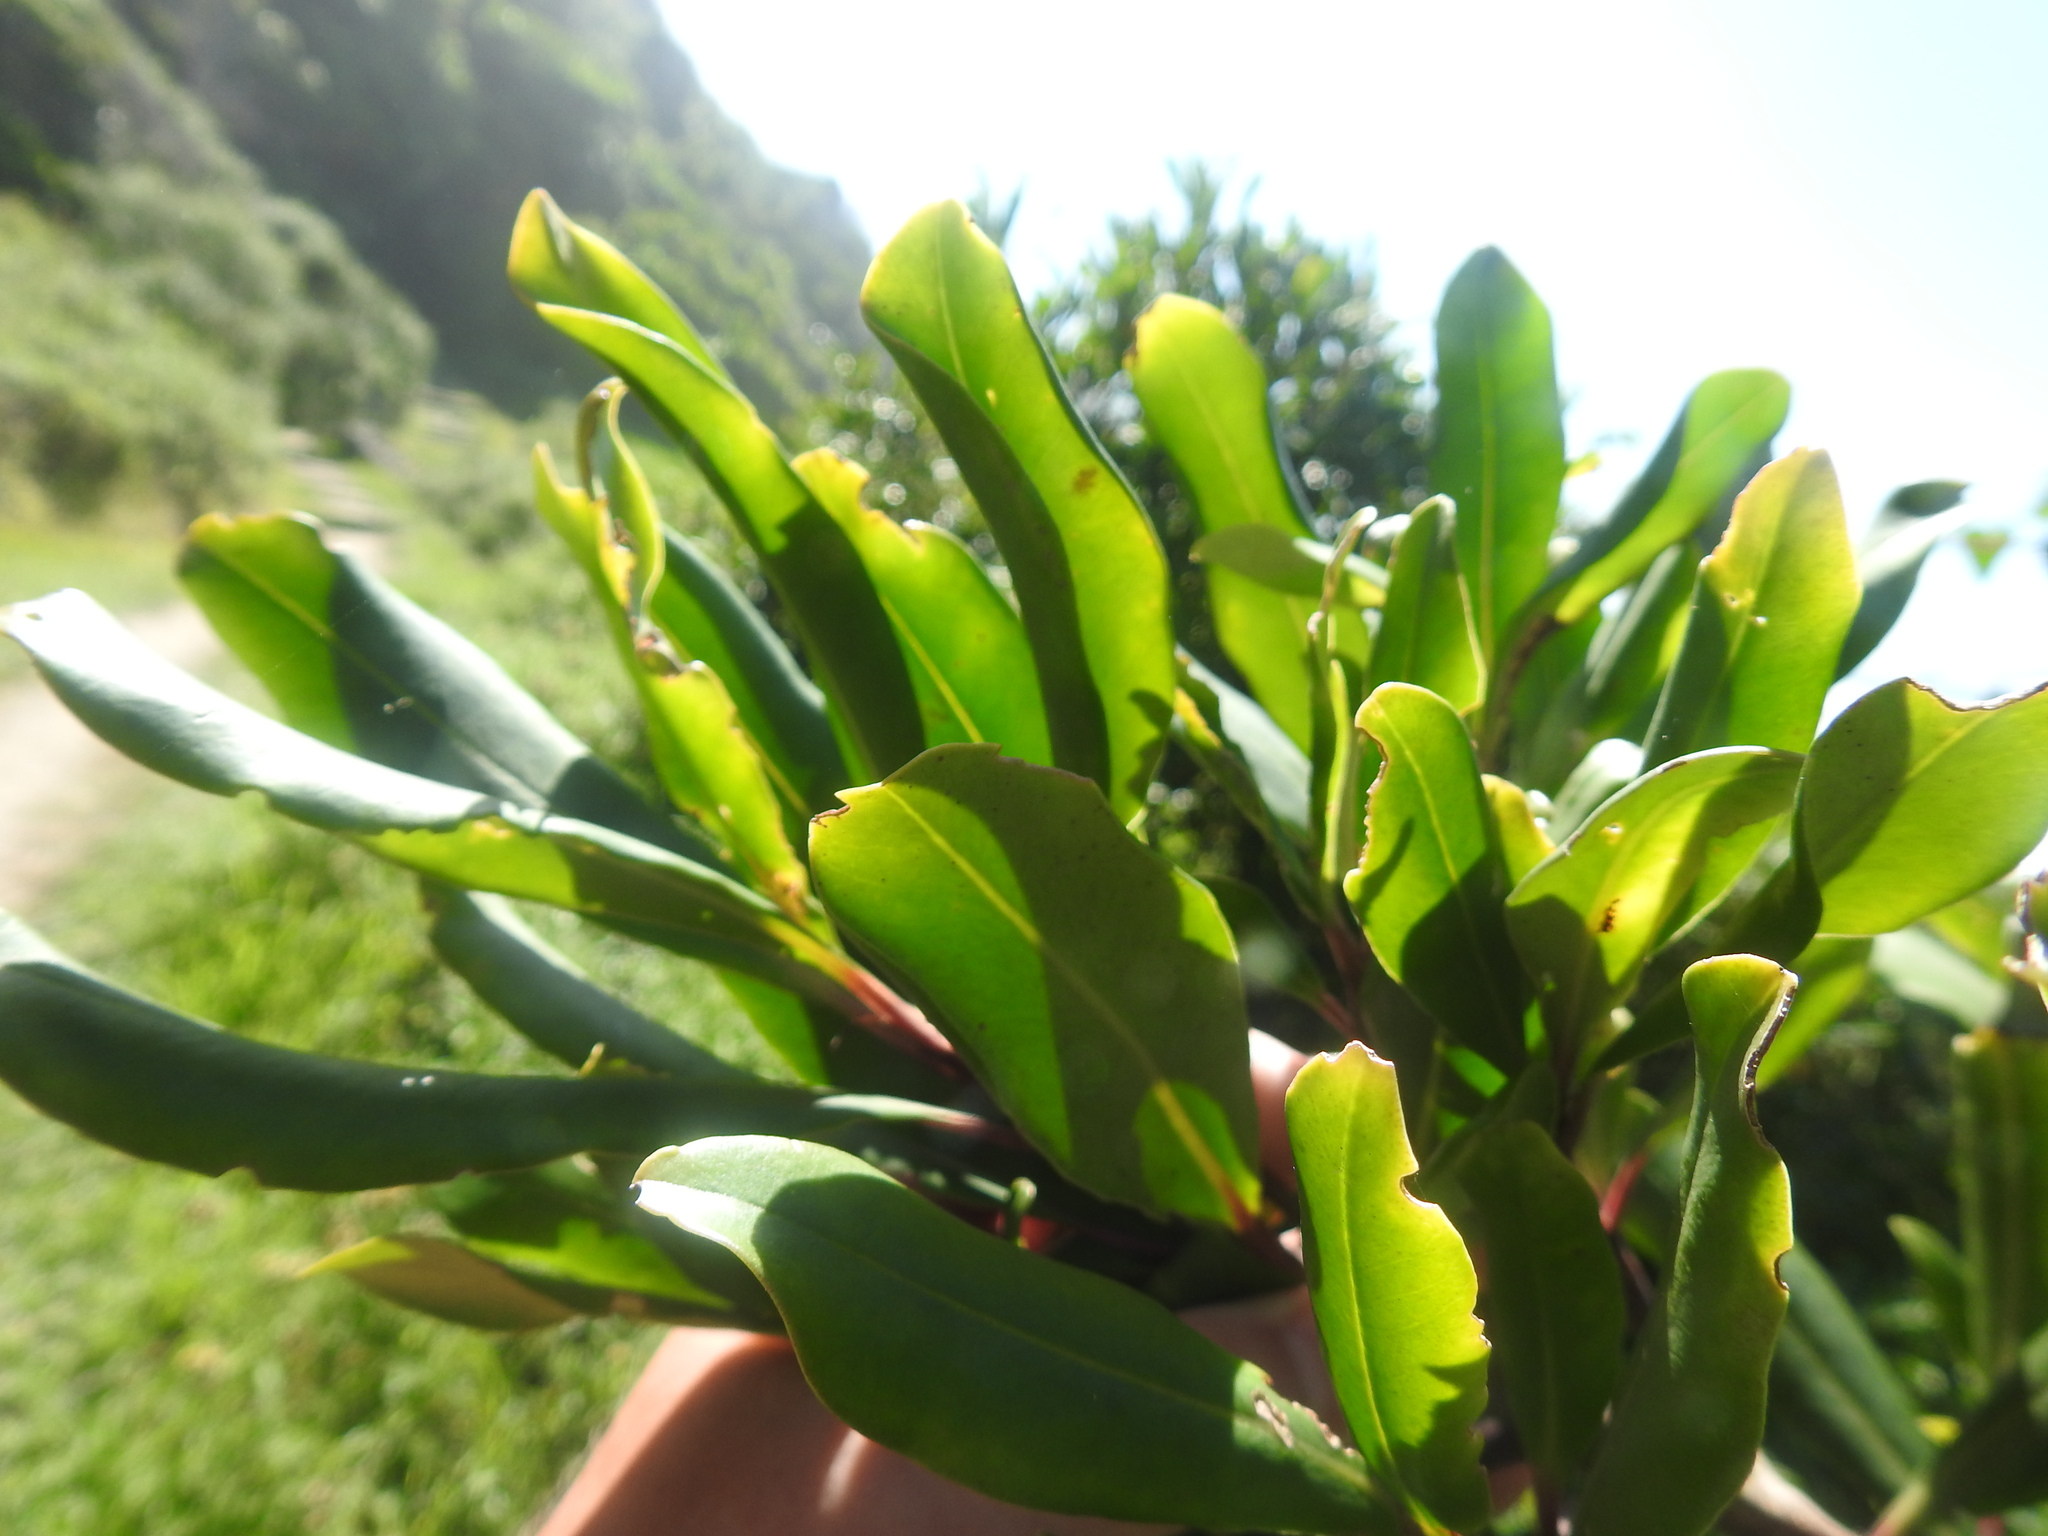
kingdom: Plantae
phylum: Tracheophyta
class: Magnoliopsida
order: Ericales
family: Primulaceae
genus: Myrsine
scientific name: Myrsine melanophloeos
